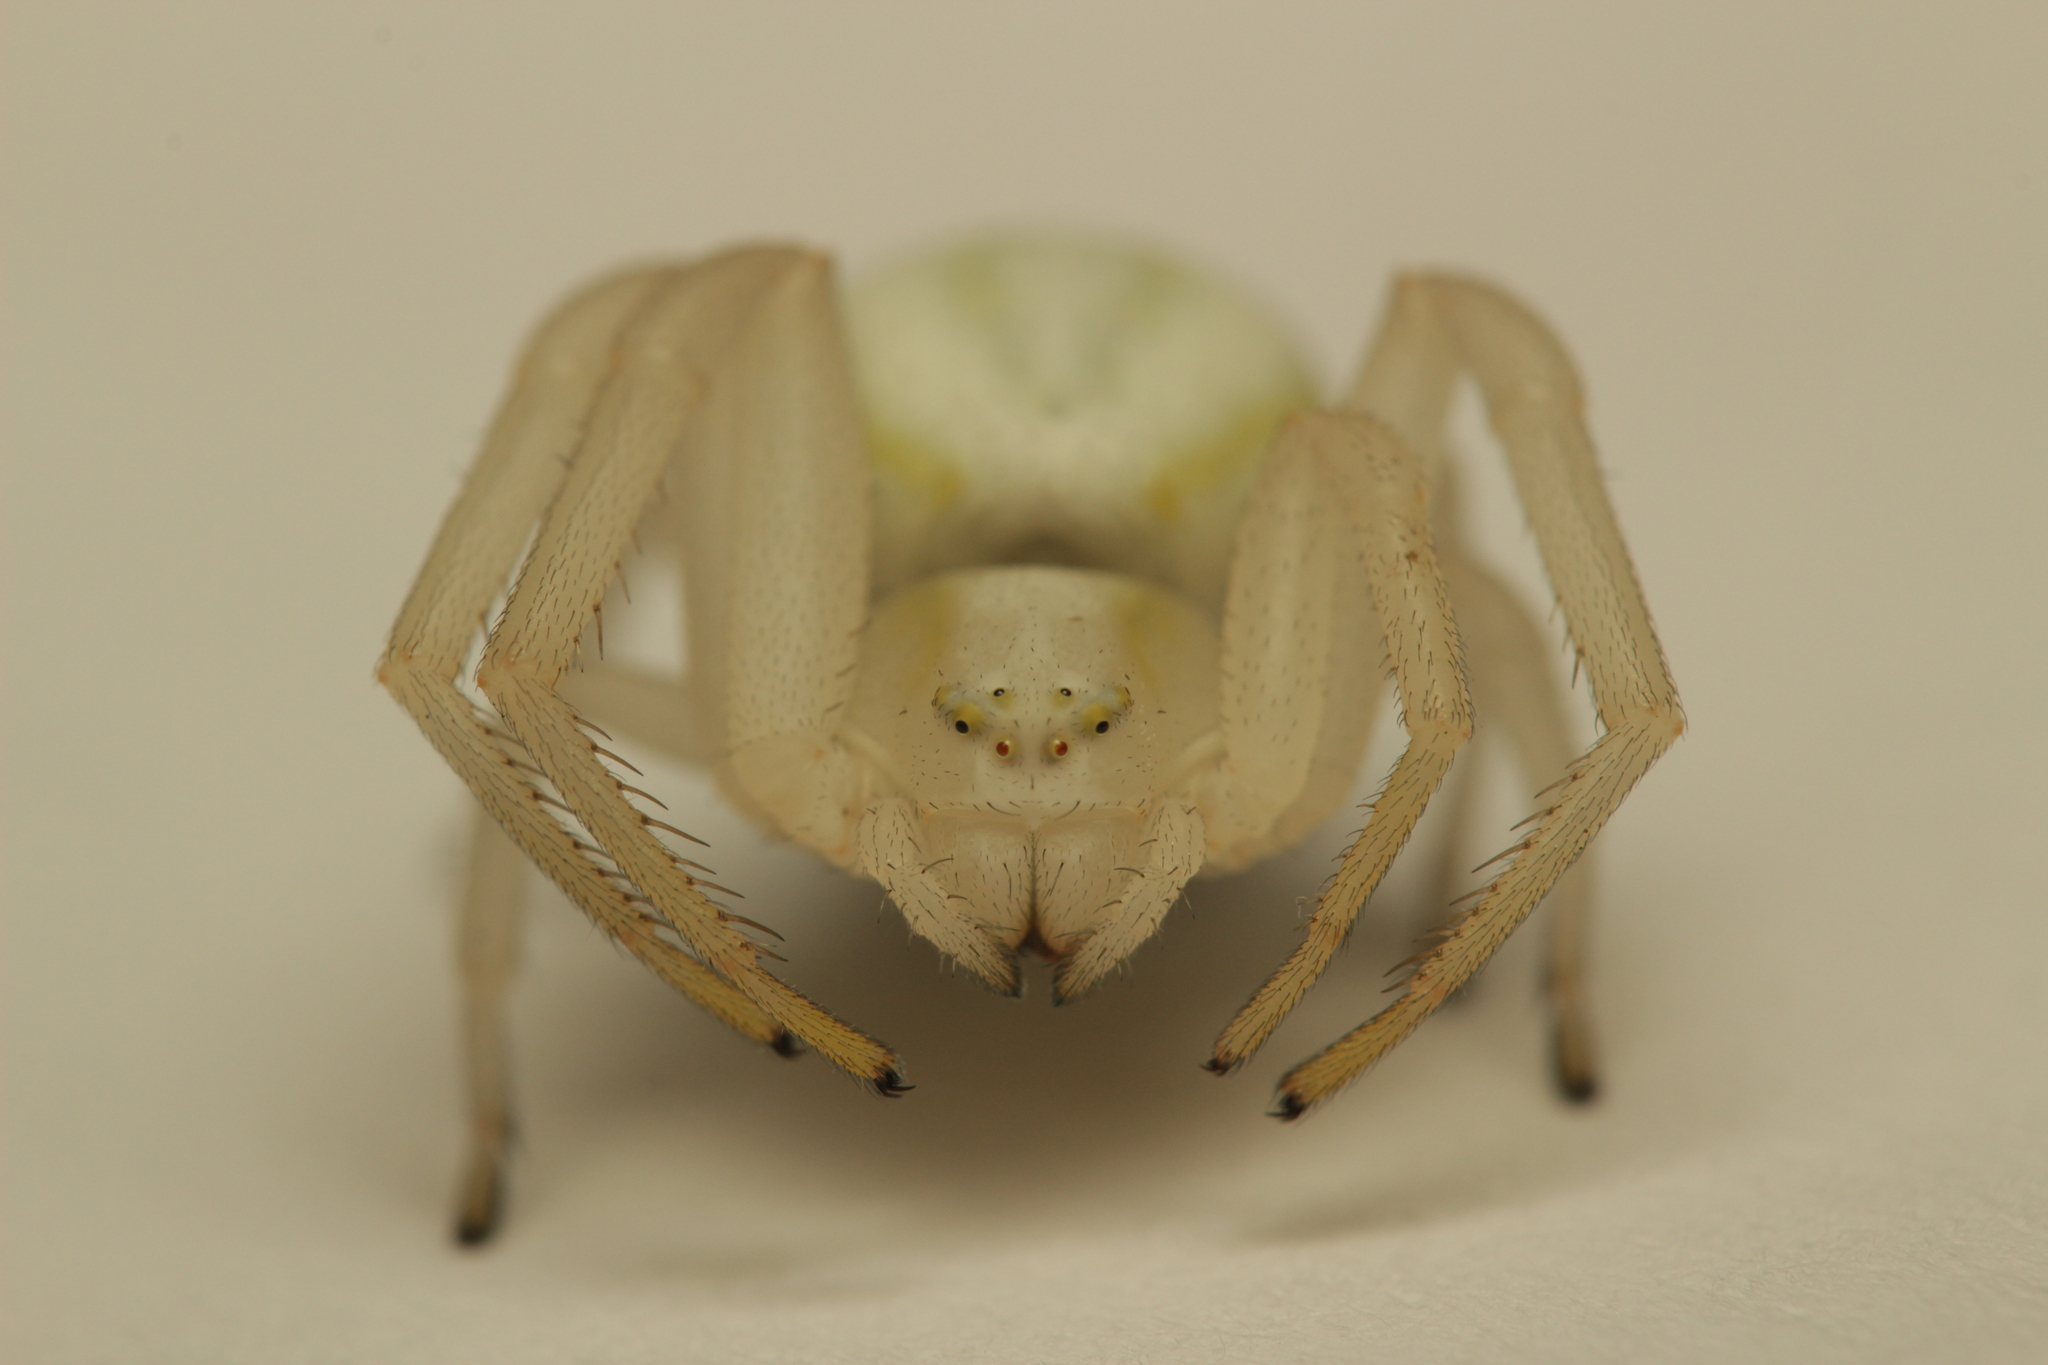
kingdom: Animalia
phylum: Arthropoda
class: Arachnida
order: Araneae
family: Thomisidae
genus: Misumena
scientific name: Misumena vatia
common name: Goldenrod crab spider
